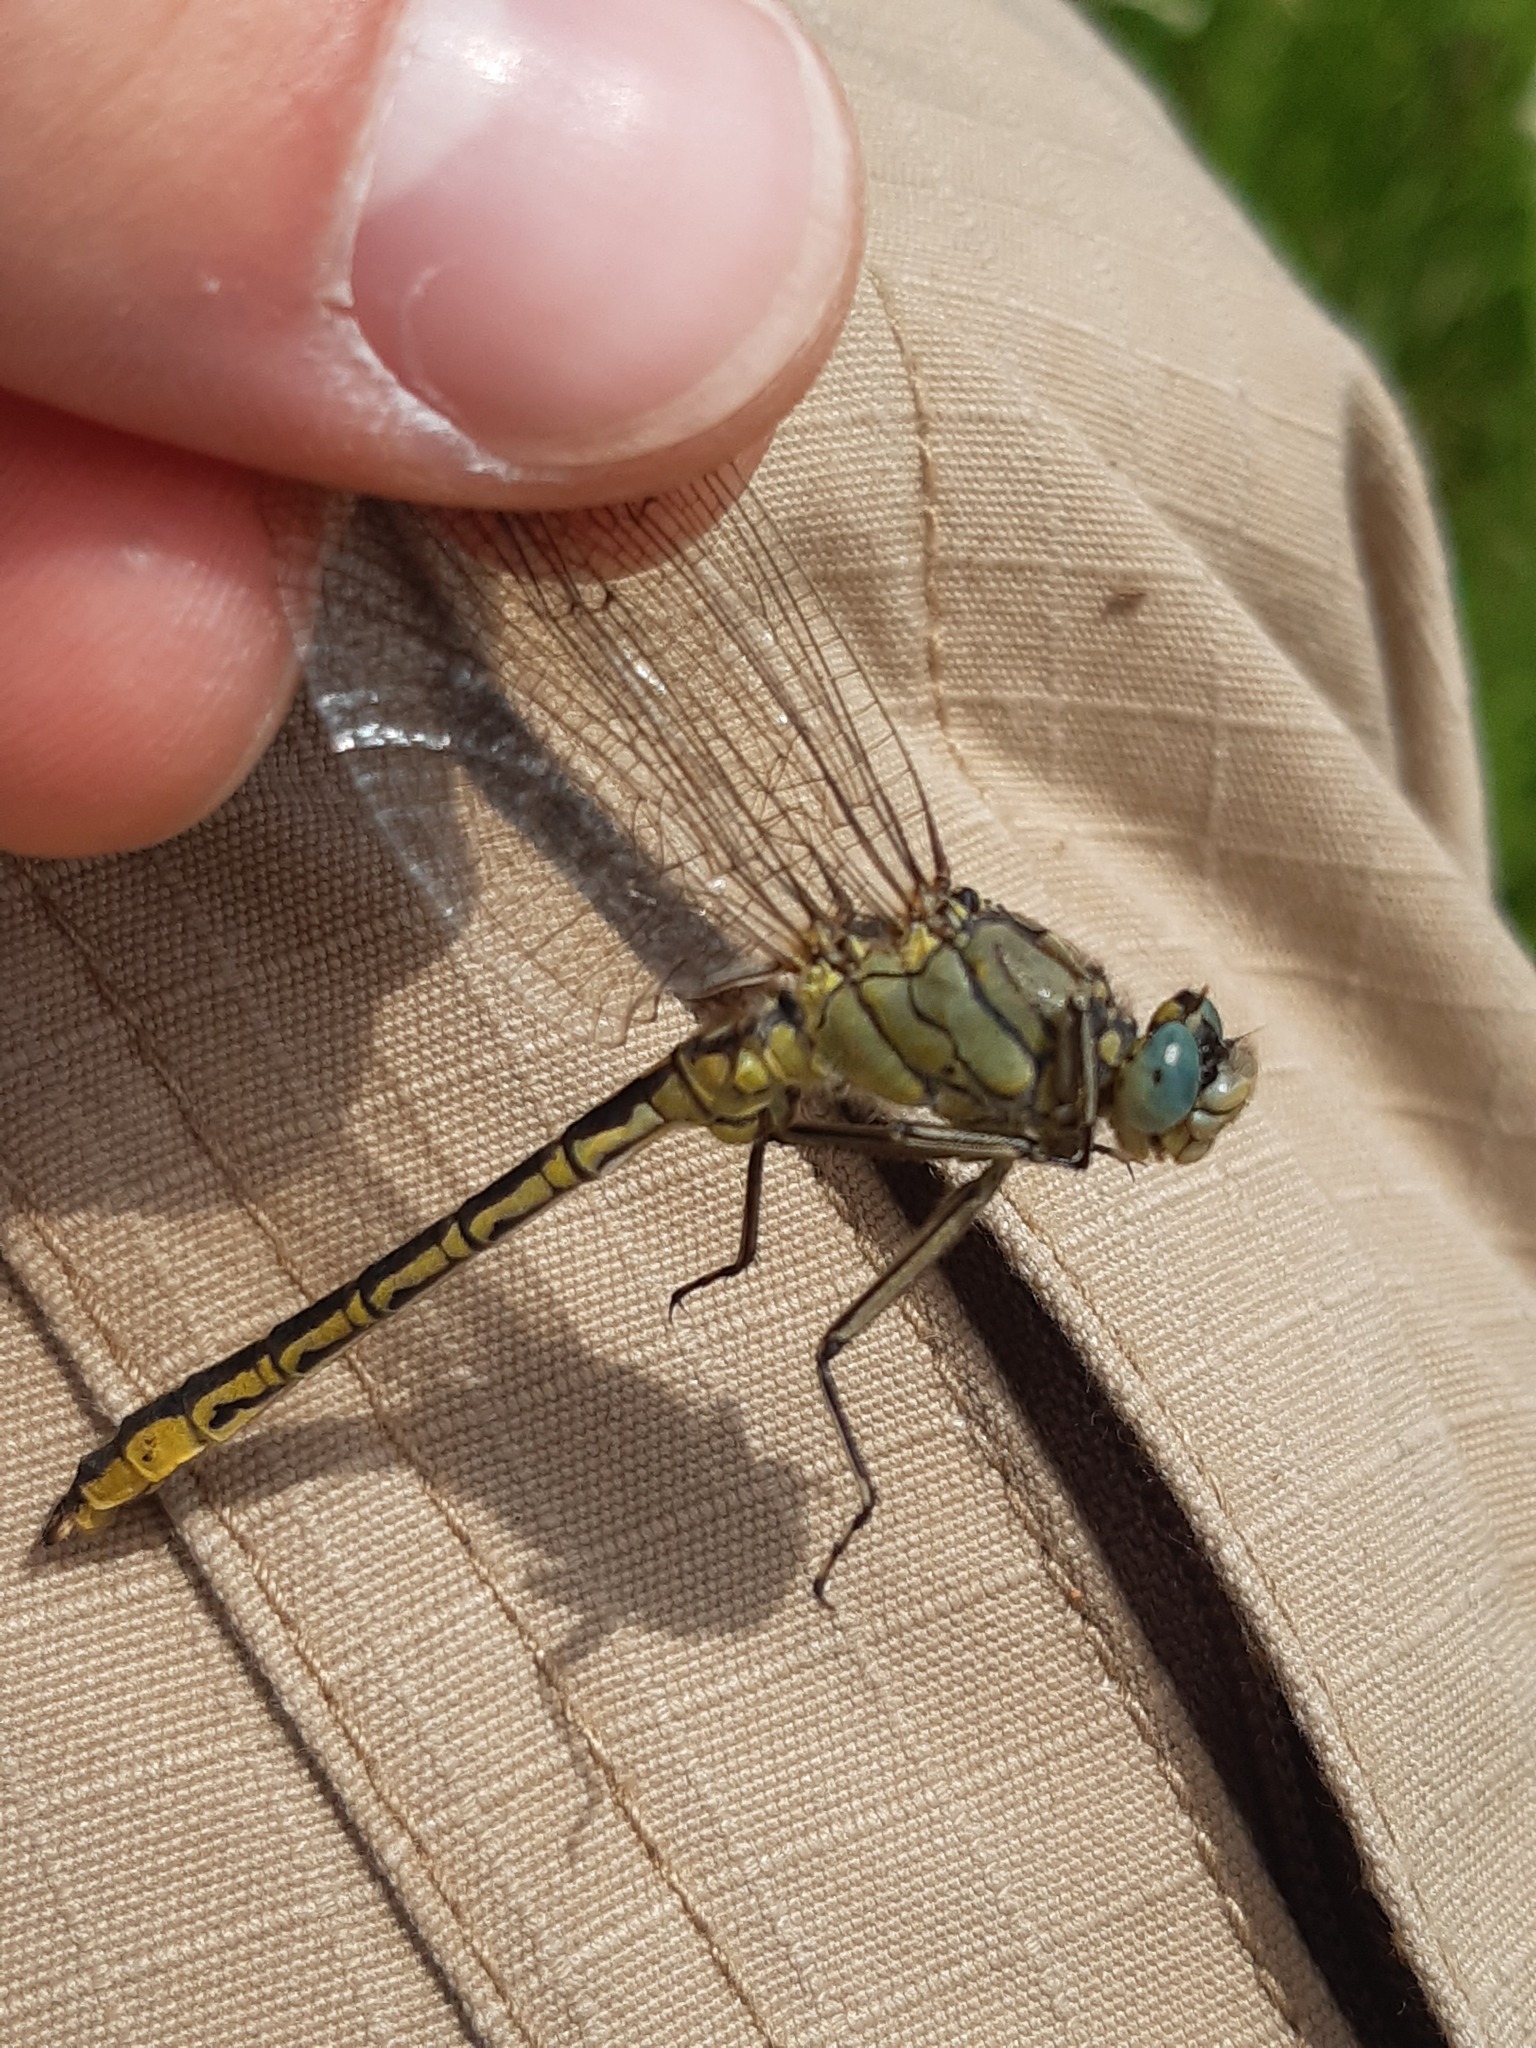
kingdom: Animalia
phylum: Arthropoda
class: Insecta
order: Odonata
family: Gomphidae
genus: Gomphus
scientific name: Gomphus pulchellus
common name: Western clubtail
